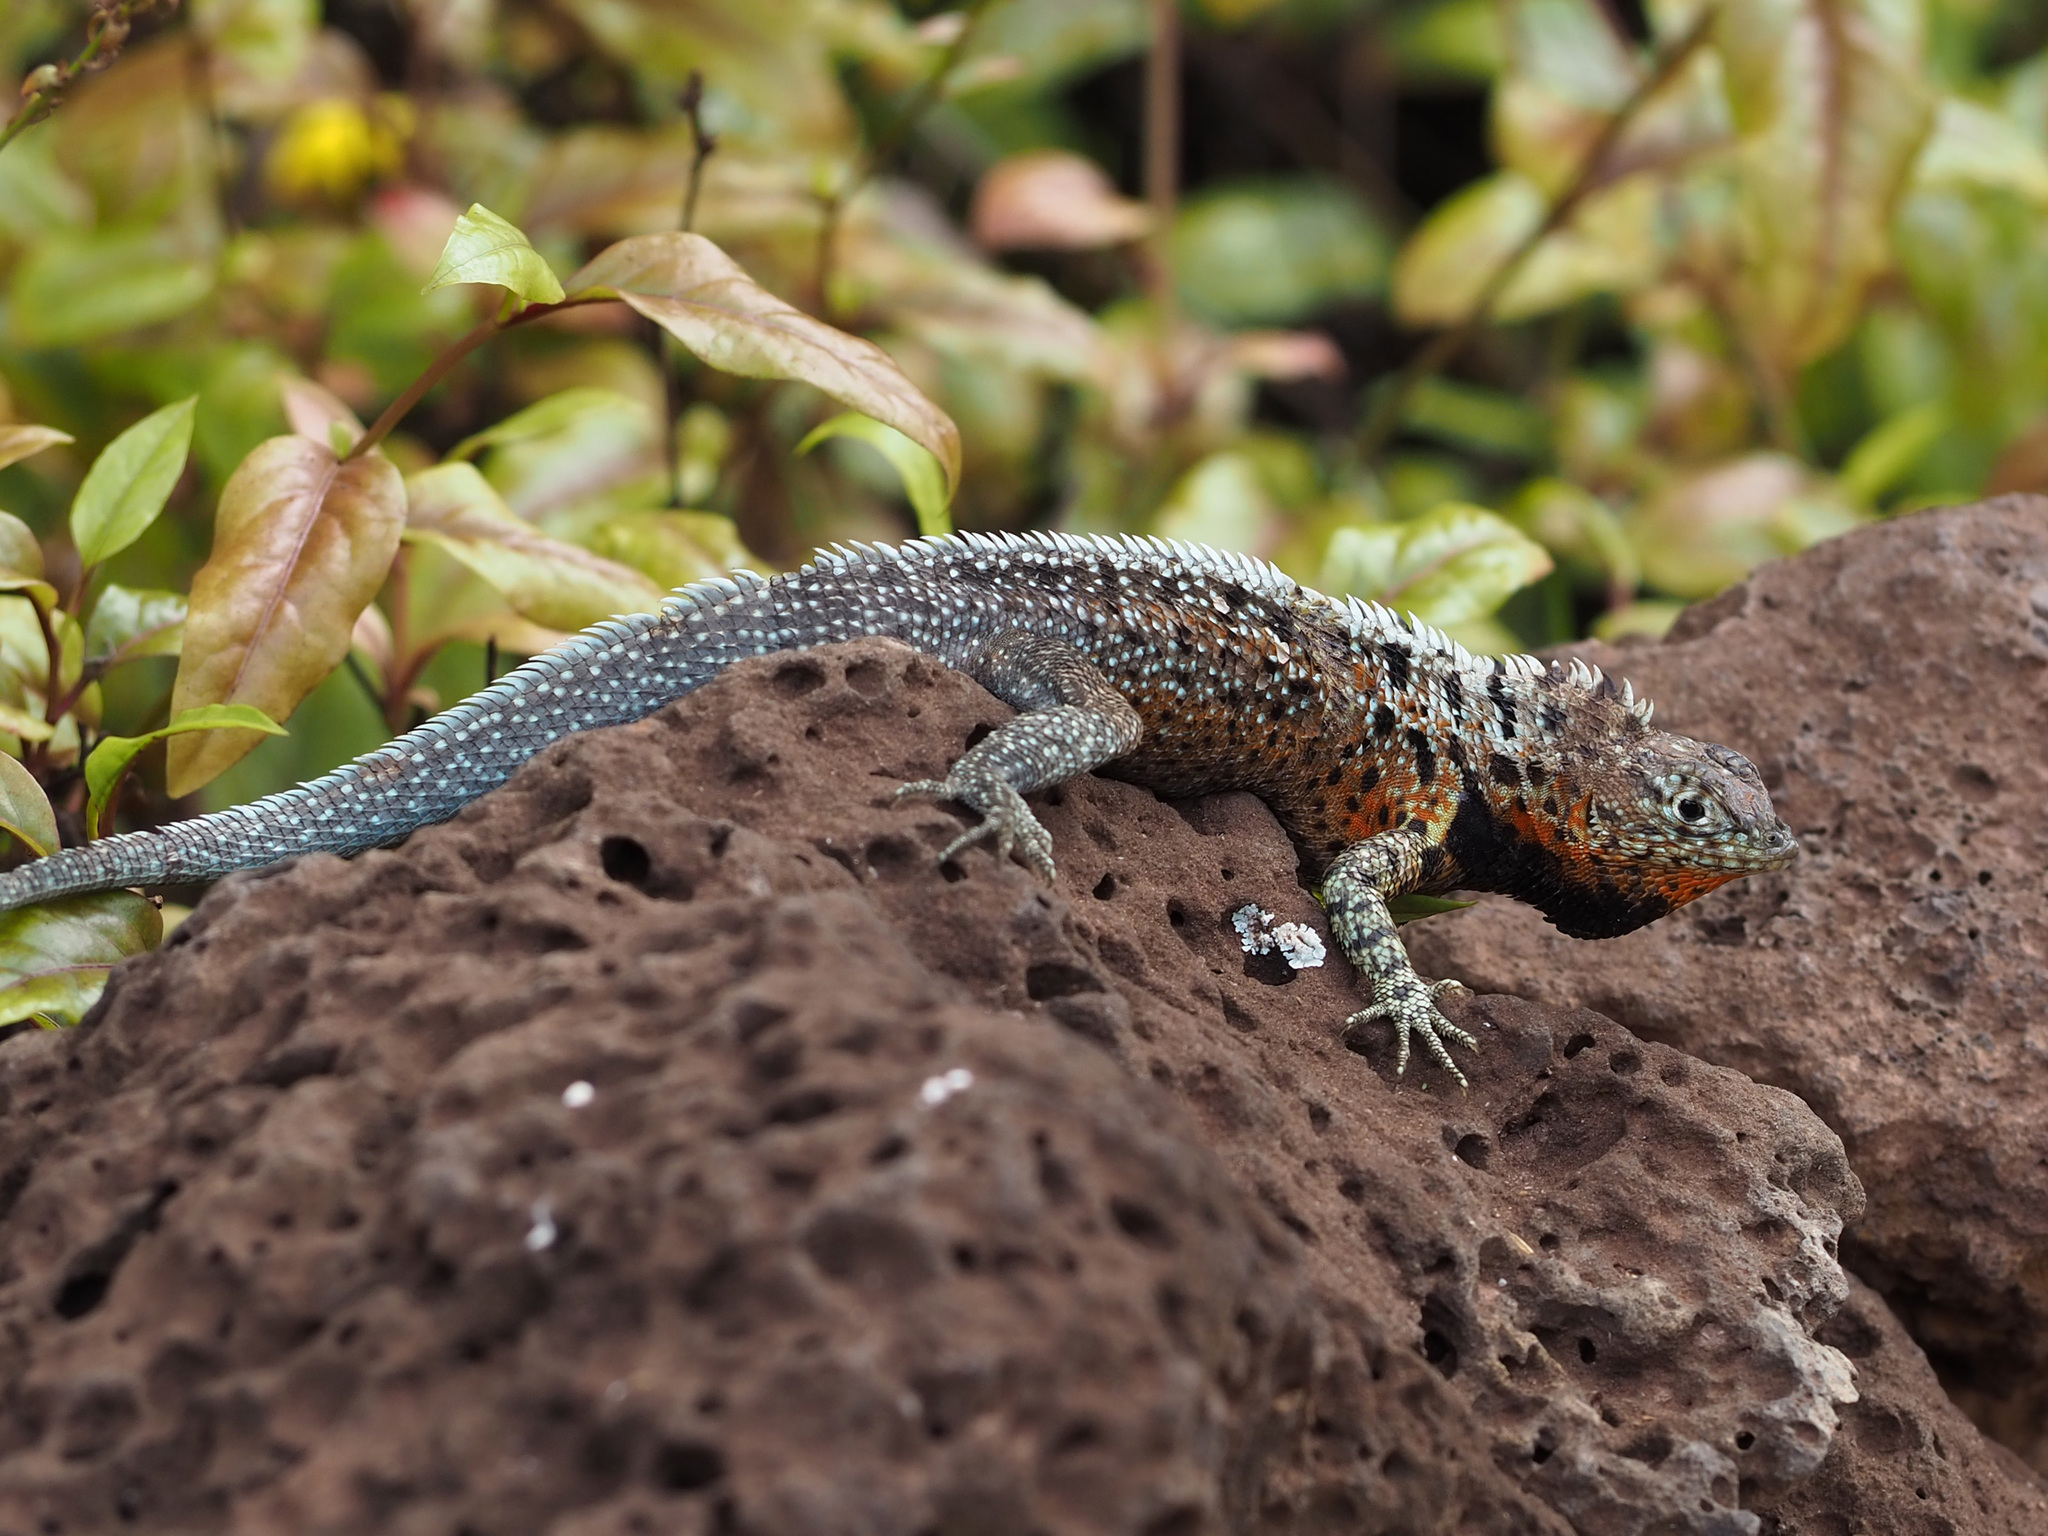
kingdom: Animalia
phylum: Chordata
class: Squamata
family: Tropiduridae
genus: Microlophus
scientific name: Microlophus indefatigabilis
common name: Galapagos lava lizard
